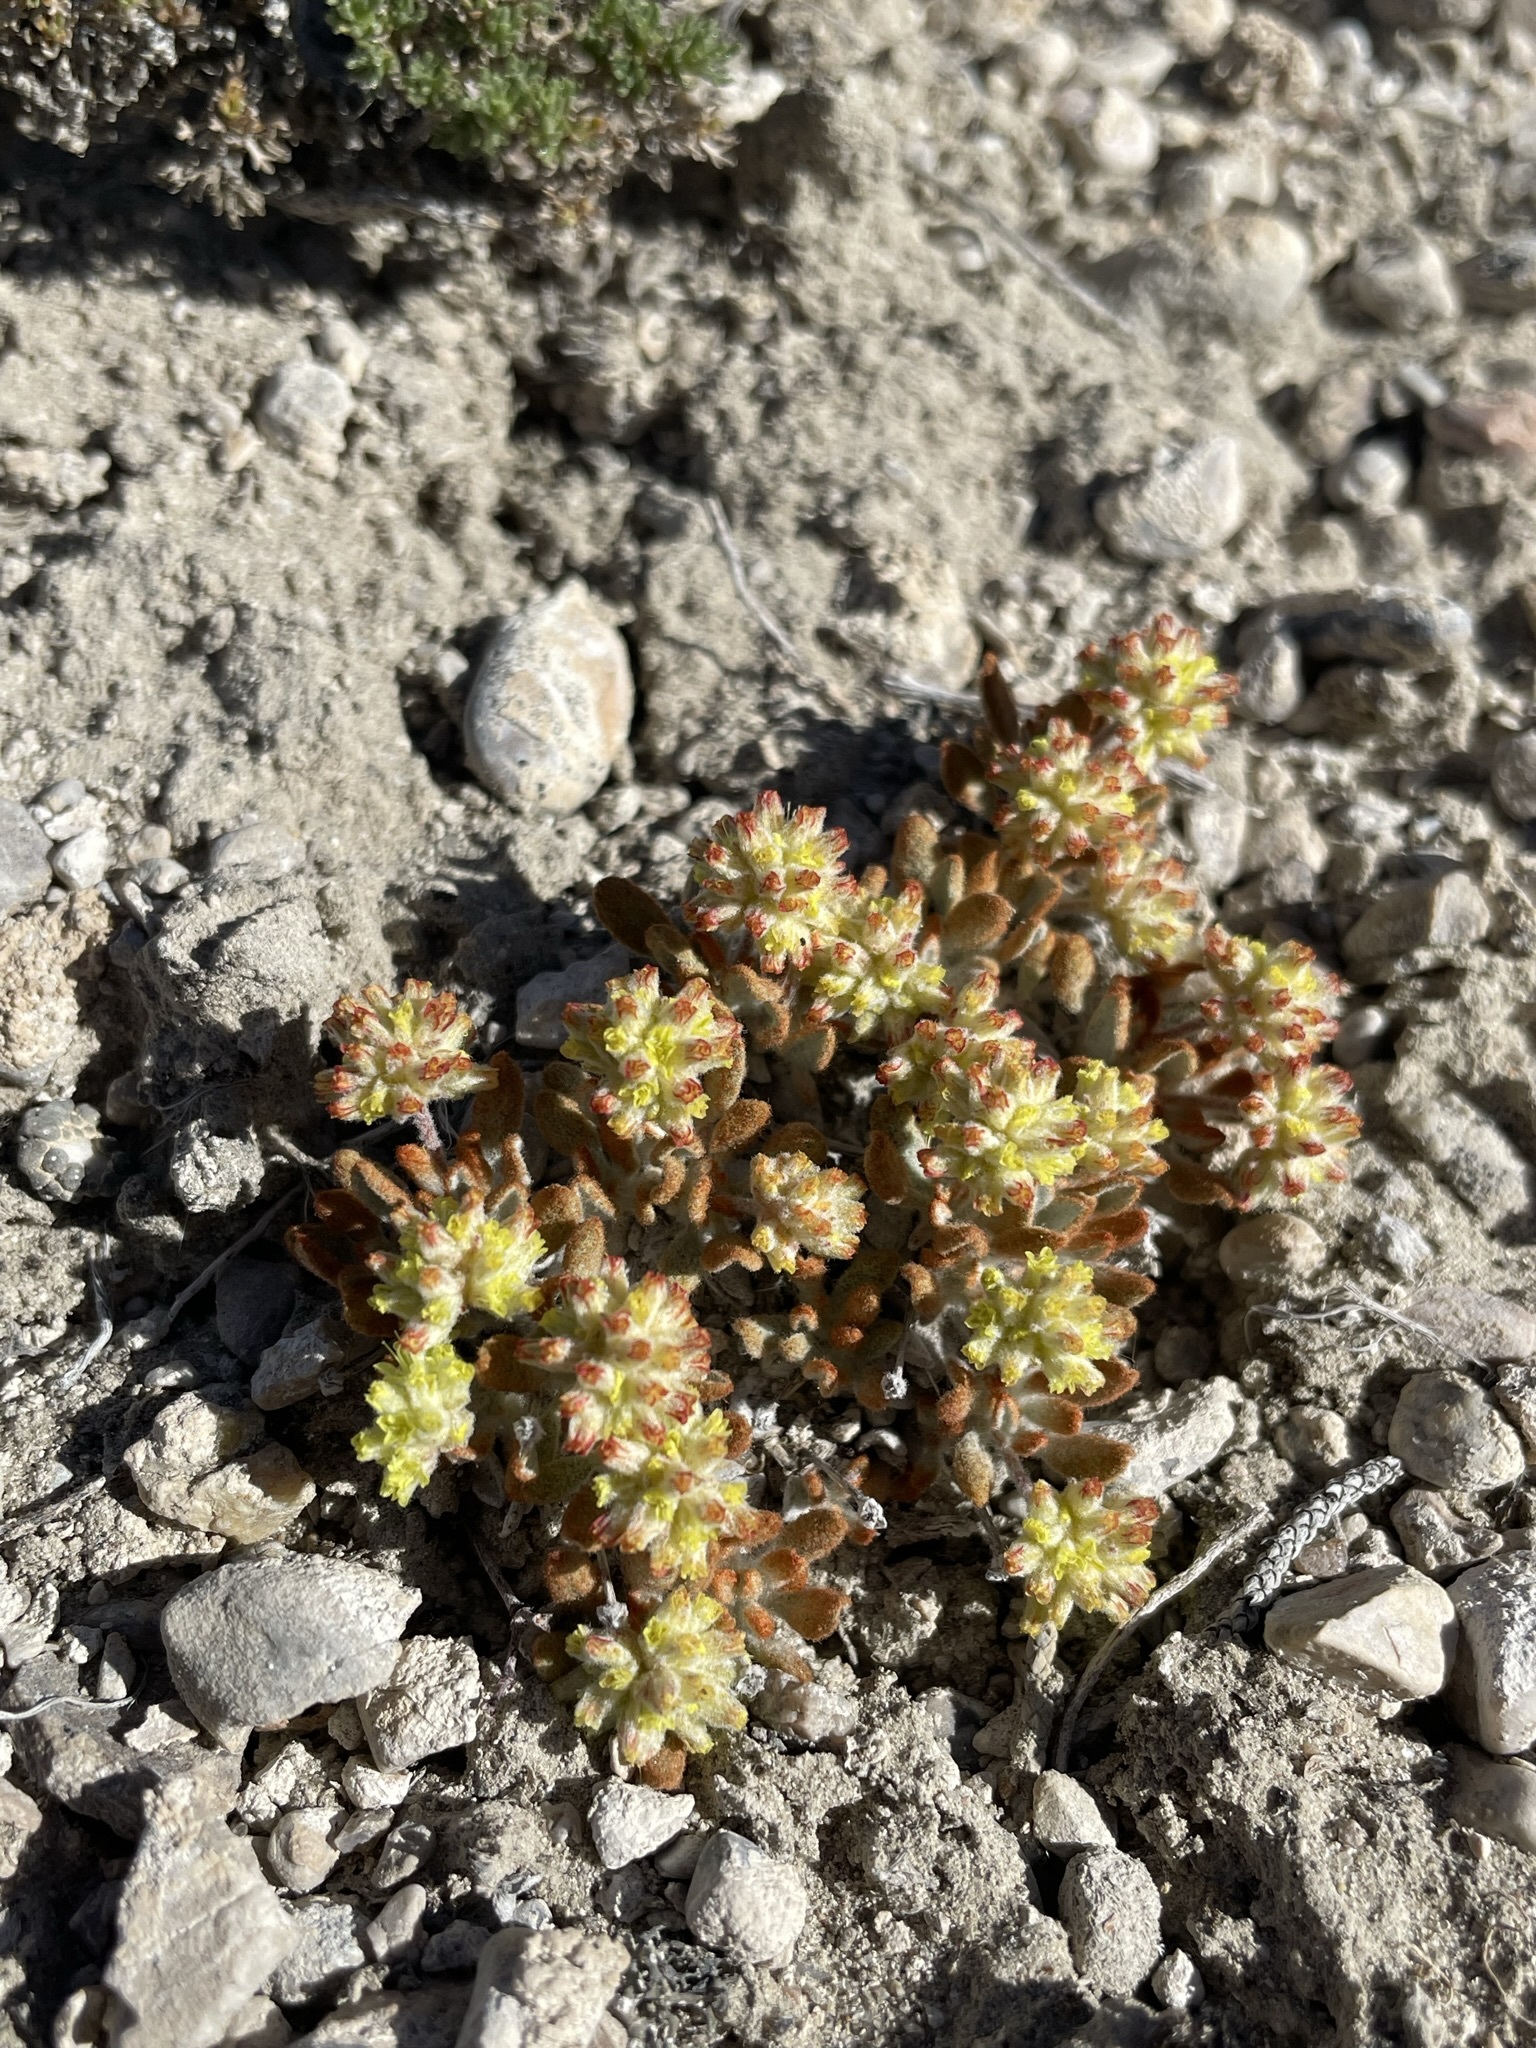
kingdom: Plantae
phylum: Tracheophyta
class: Magnoliopsida
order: Caryophyllales
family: Polygonaceae
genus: Eriogonum
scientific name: Eriogonum shockleyi
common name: Shockley's wild buckwheat
